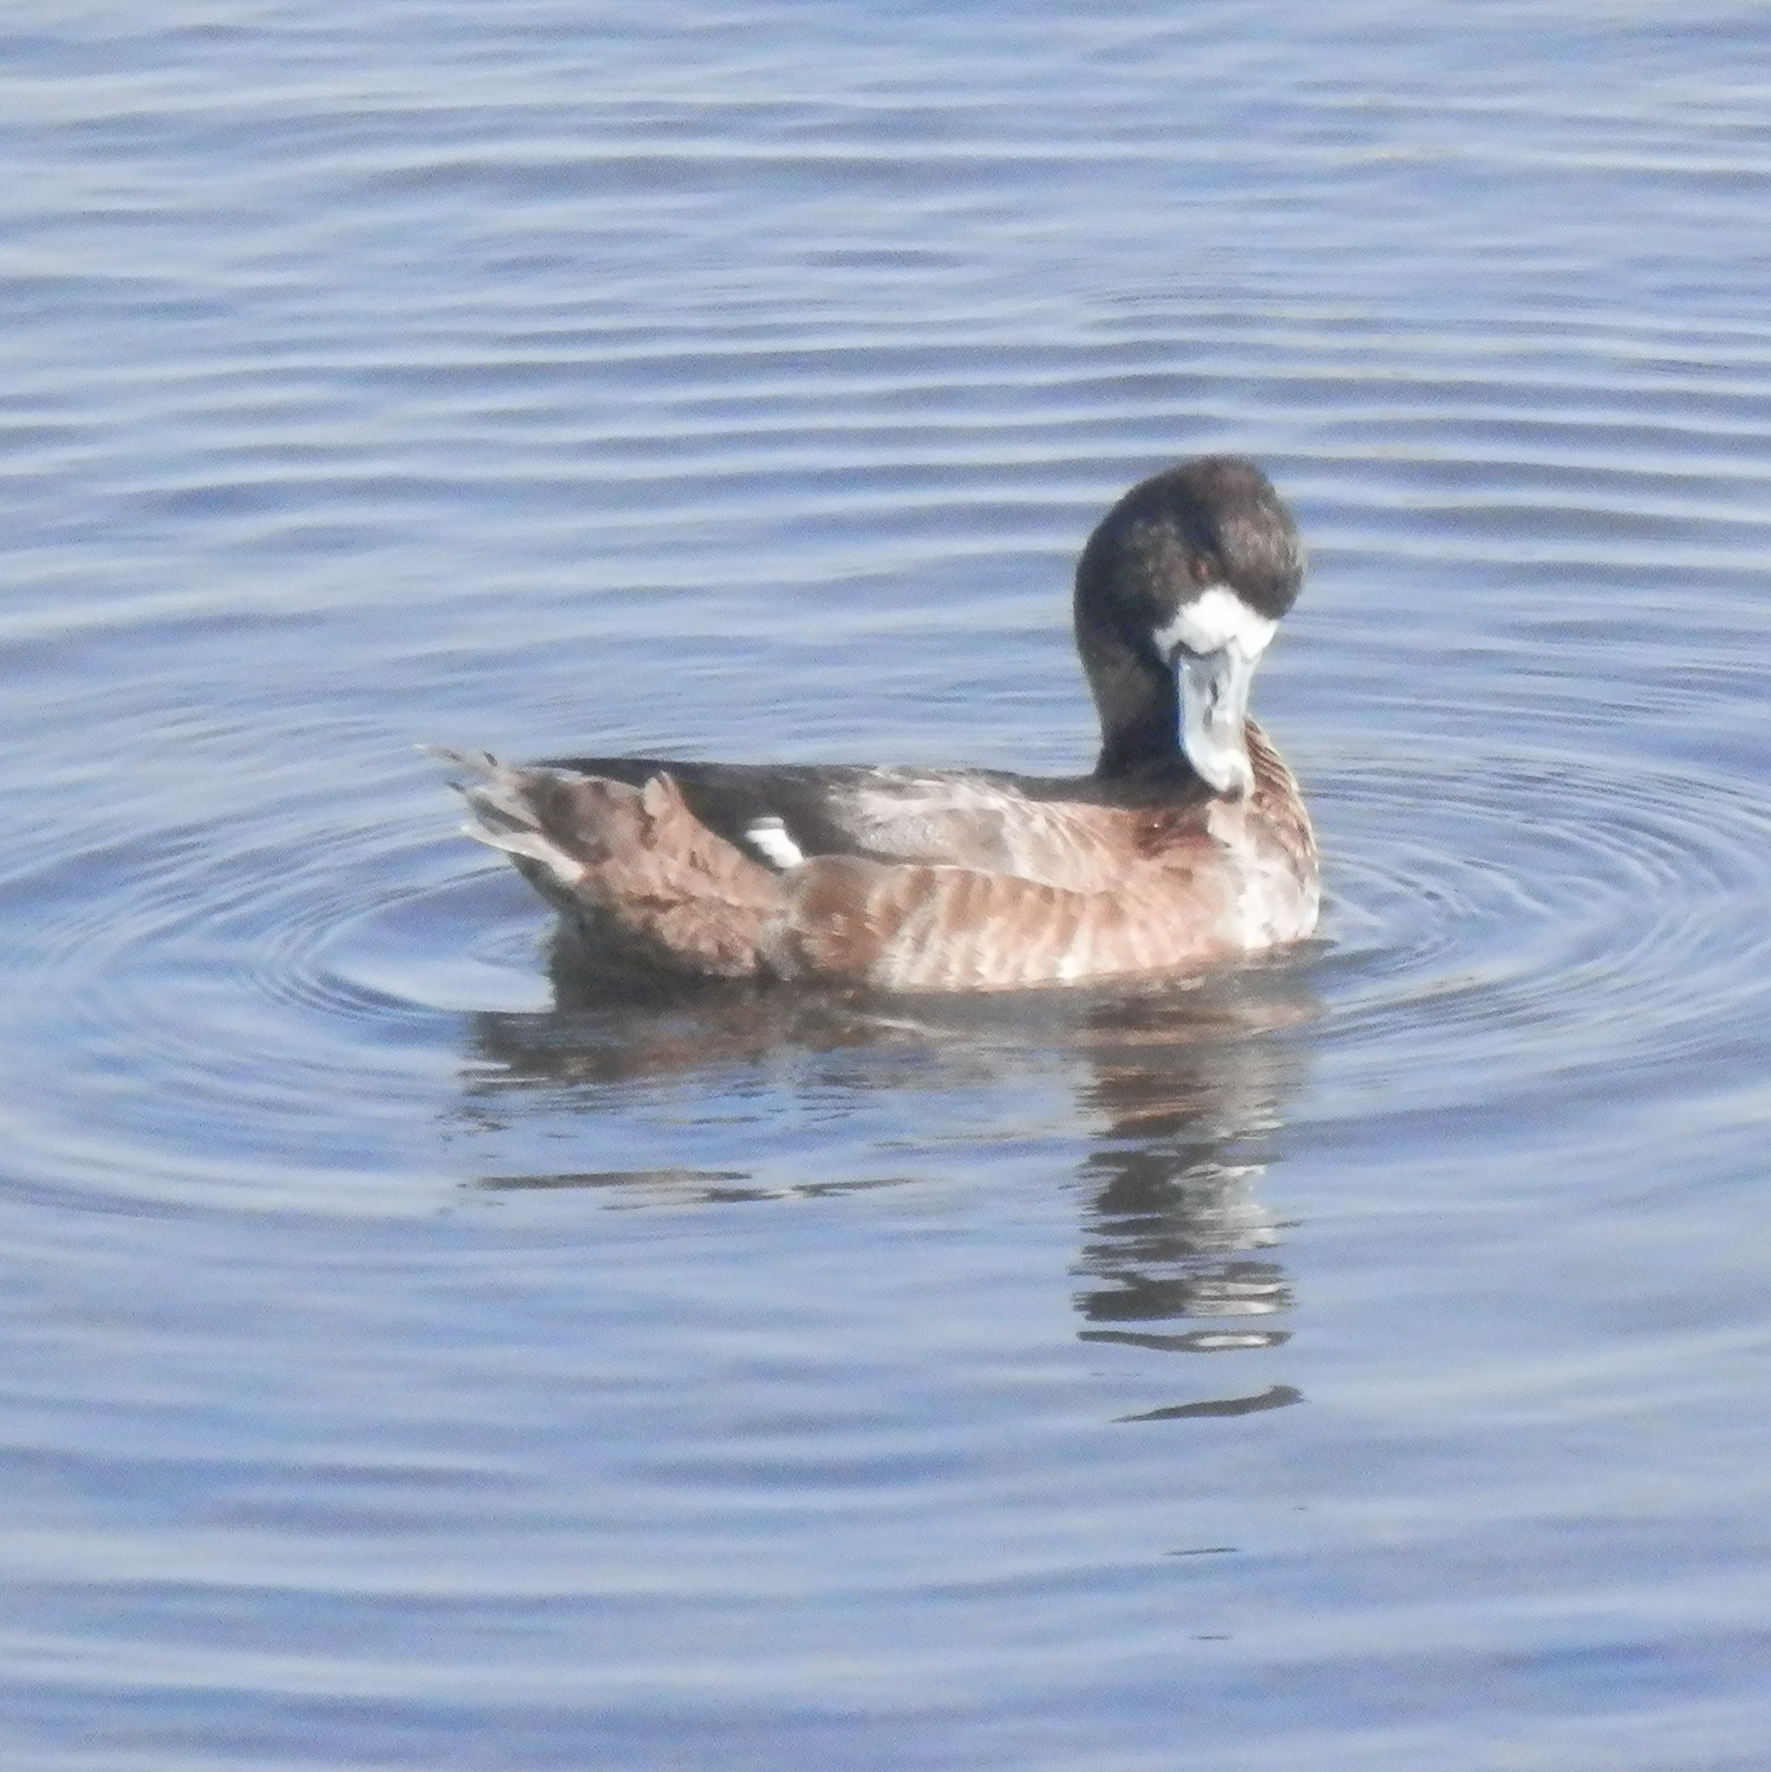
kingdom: Animalia
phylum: Chordata
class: Aves
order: Anseriformes
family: Anatidae
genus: Aythya
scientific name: Aythya affinis
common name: Lesser scaup
